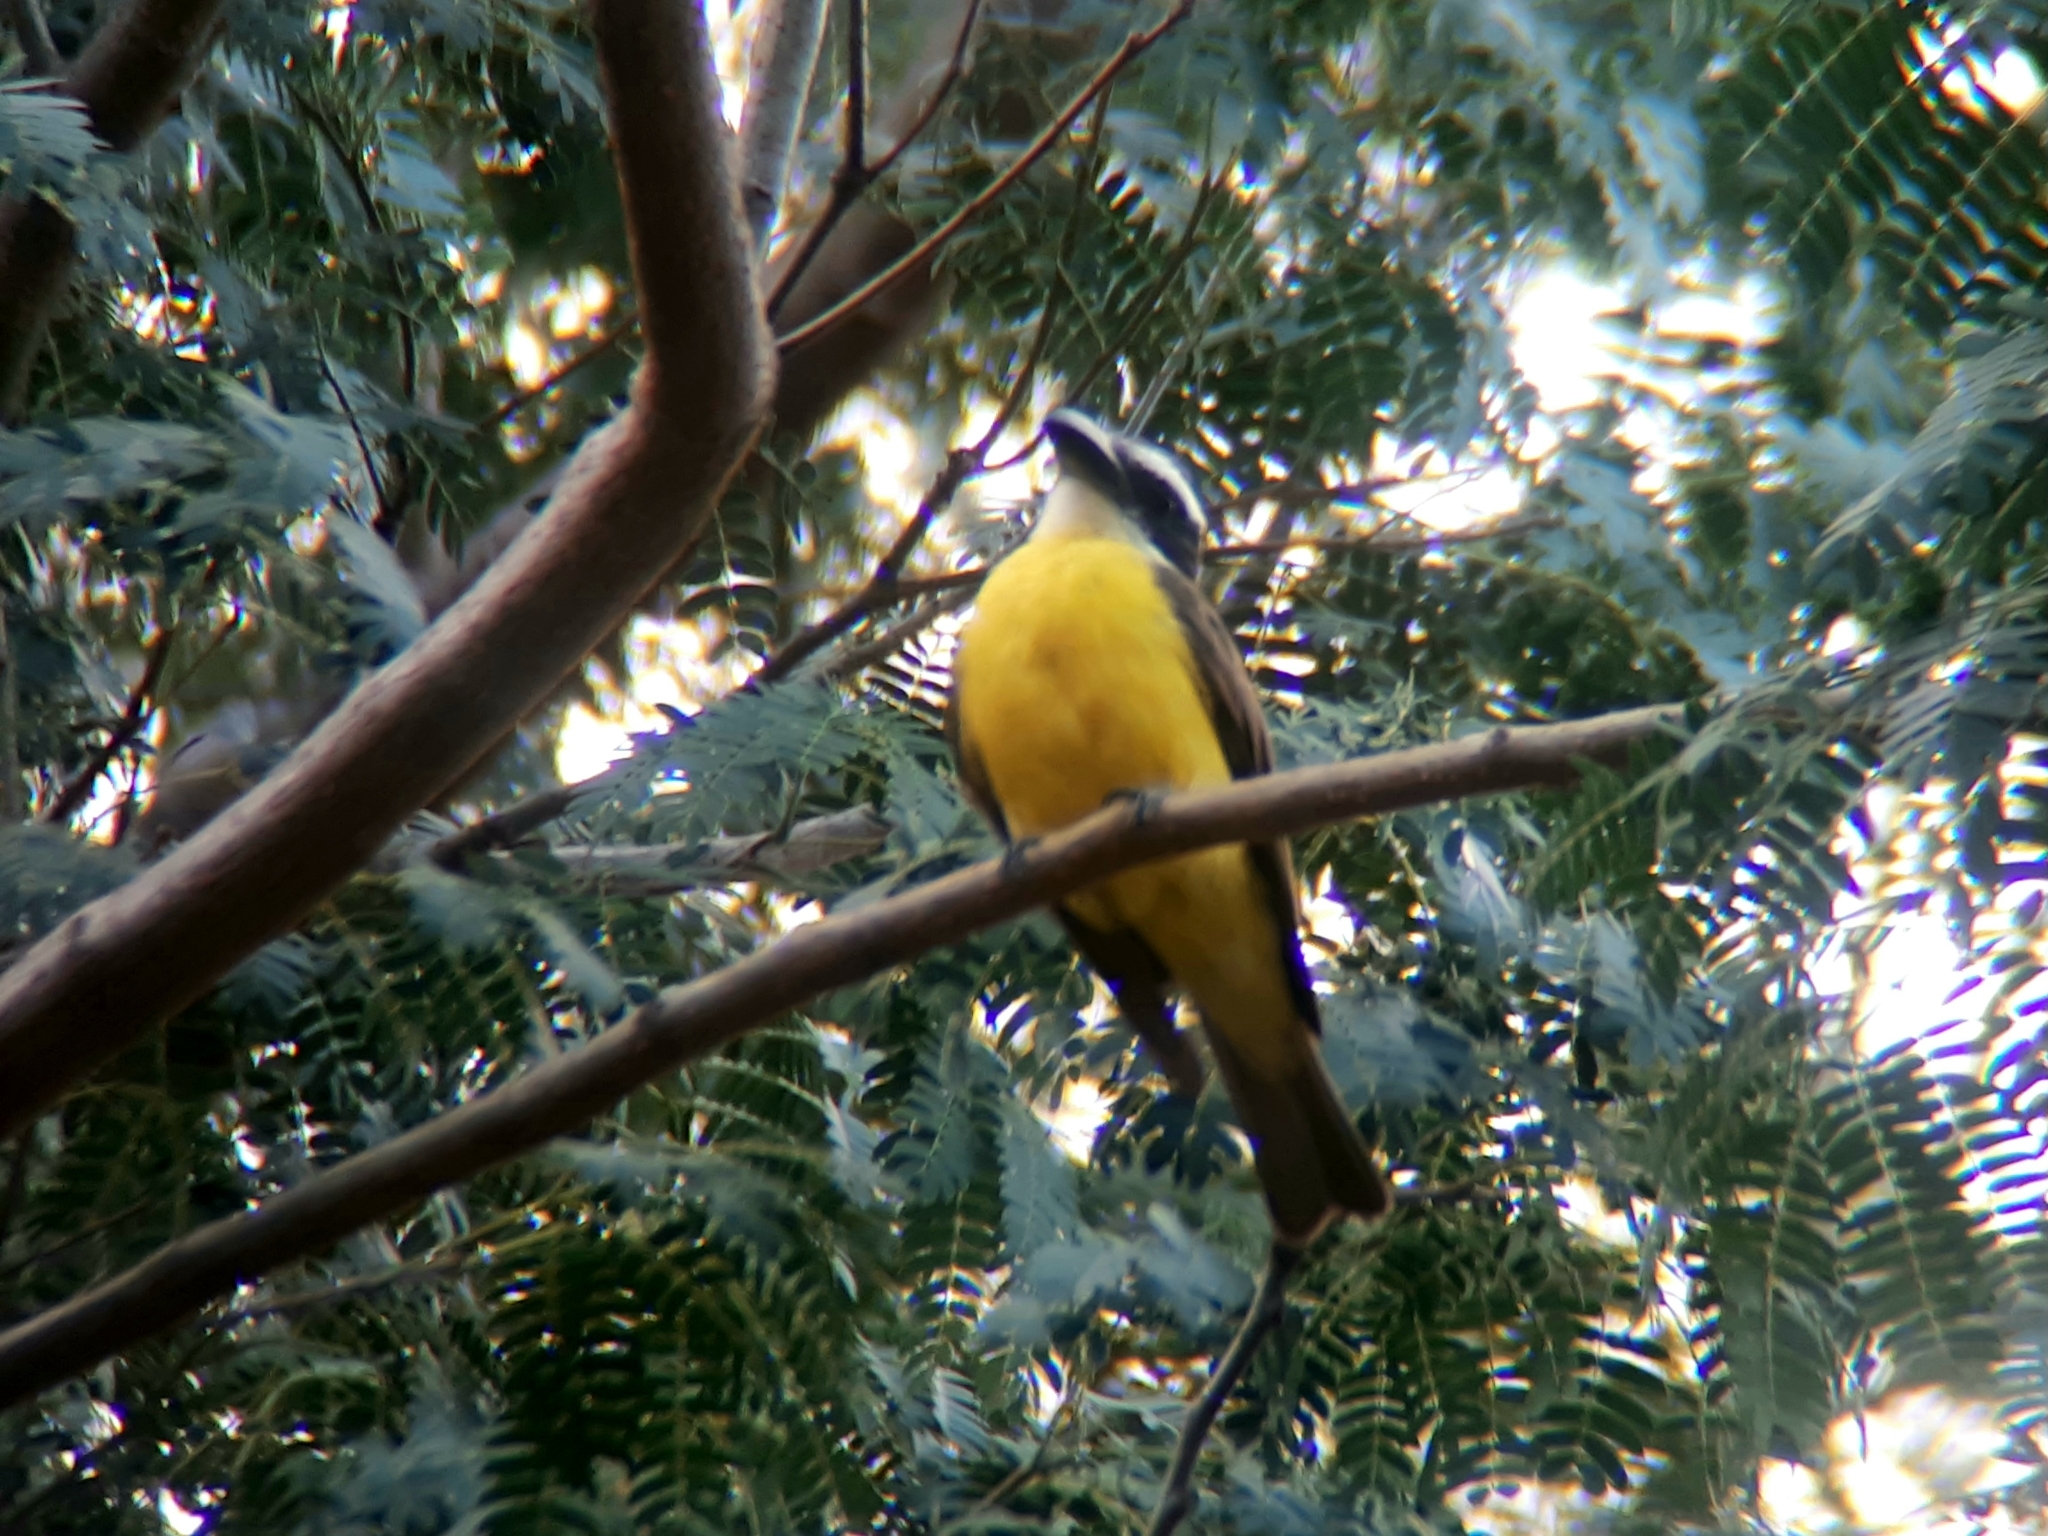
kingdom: Animalia
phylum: Chordata
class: Aves
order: Passeriformes
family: Tyrannidae
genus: Megarynchus
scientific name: Megarynchus pitangua
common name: Boat-billed flycatcher
